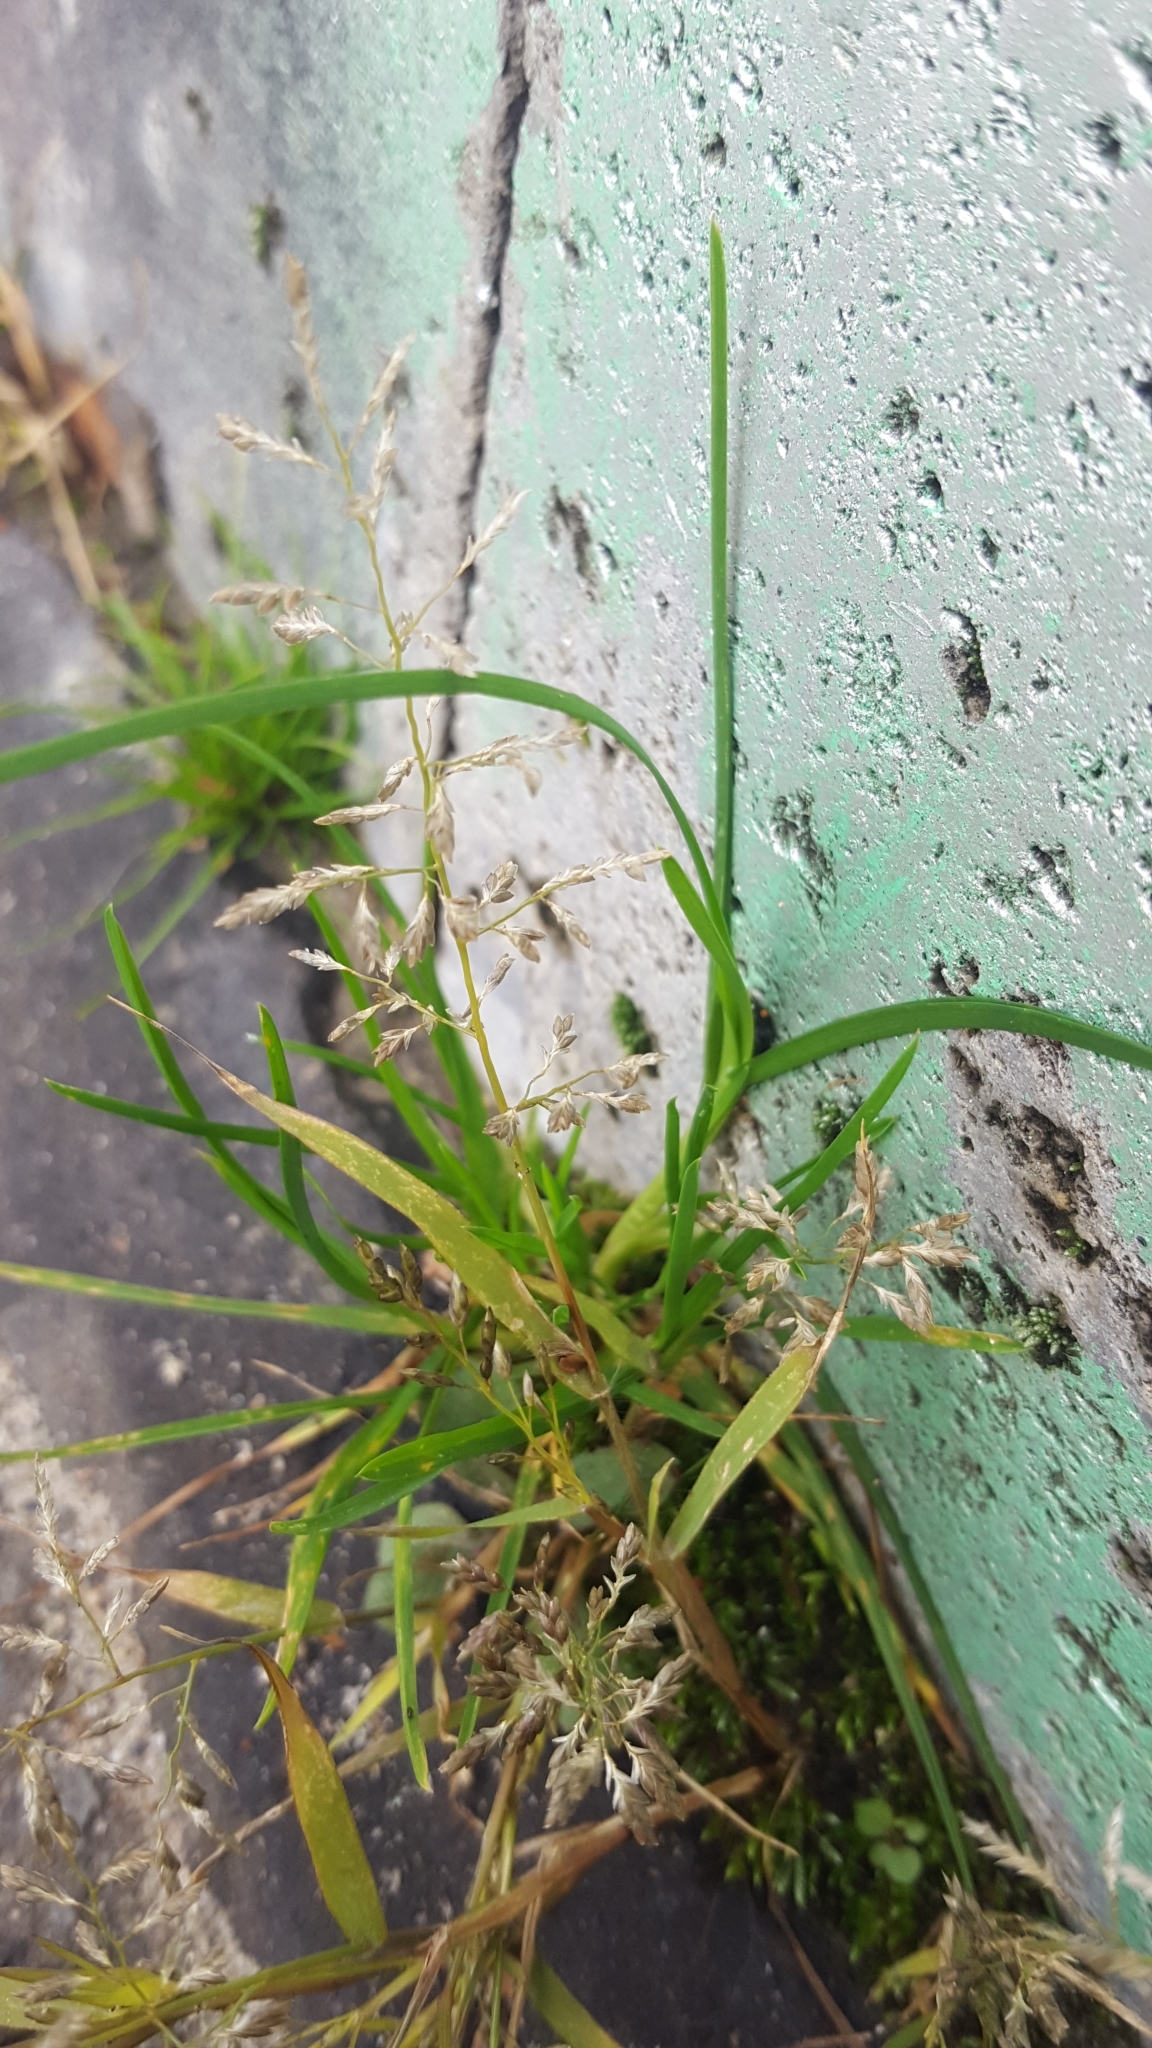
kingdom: Plantae
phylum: Tracheophyta
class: Liliopsida
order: Poales
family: Poaceae
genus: Eragrostis
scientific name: Eragrostis minor
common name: Small love-grass
